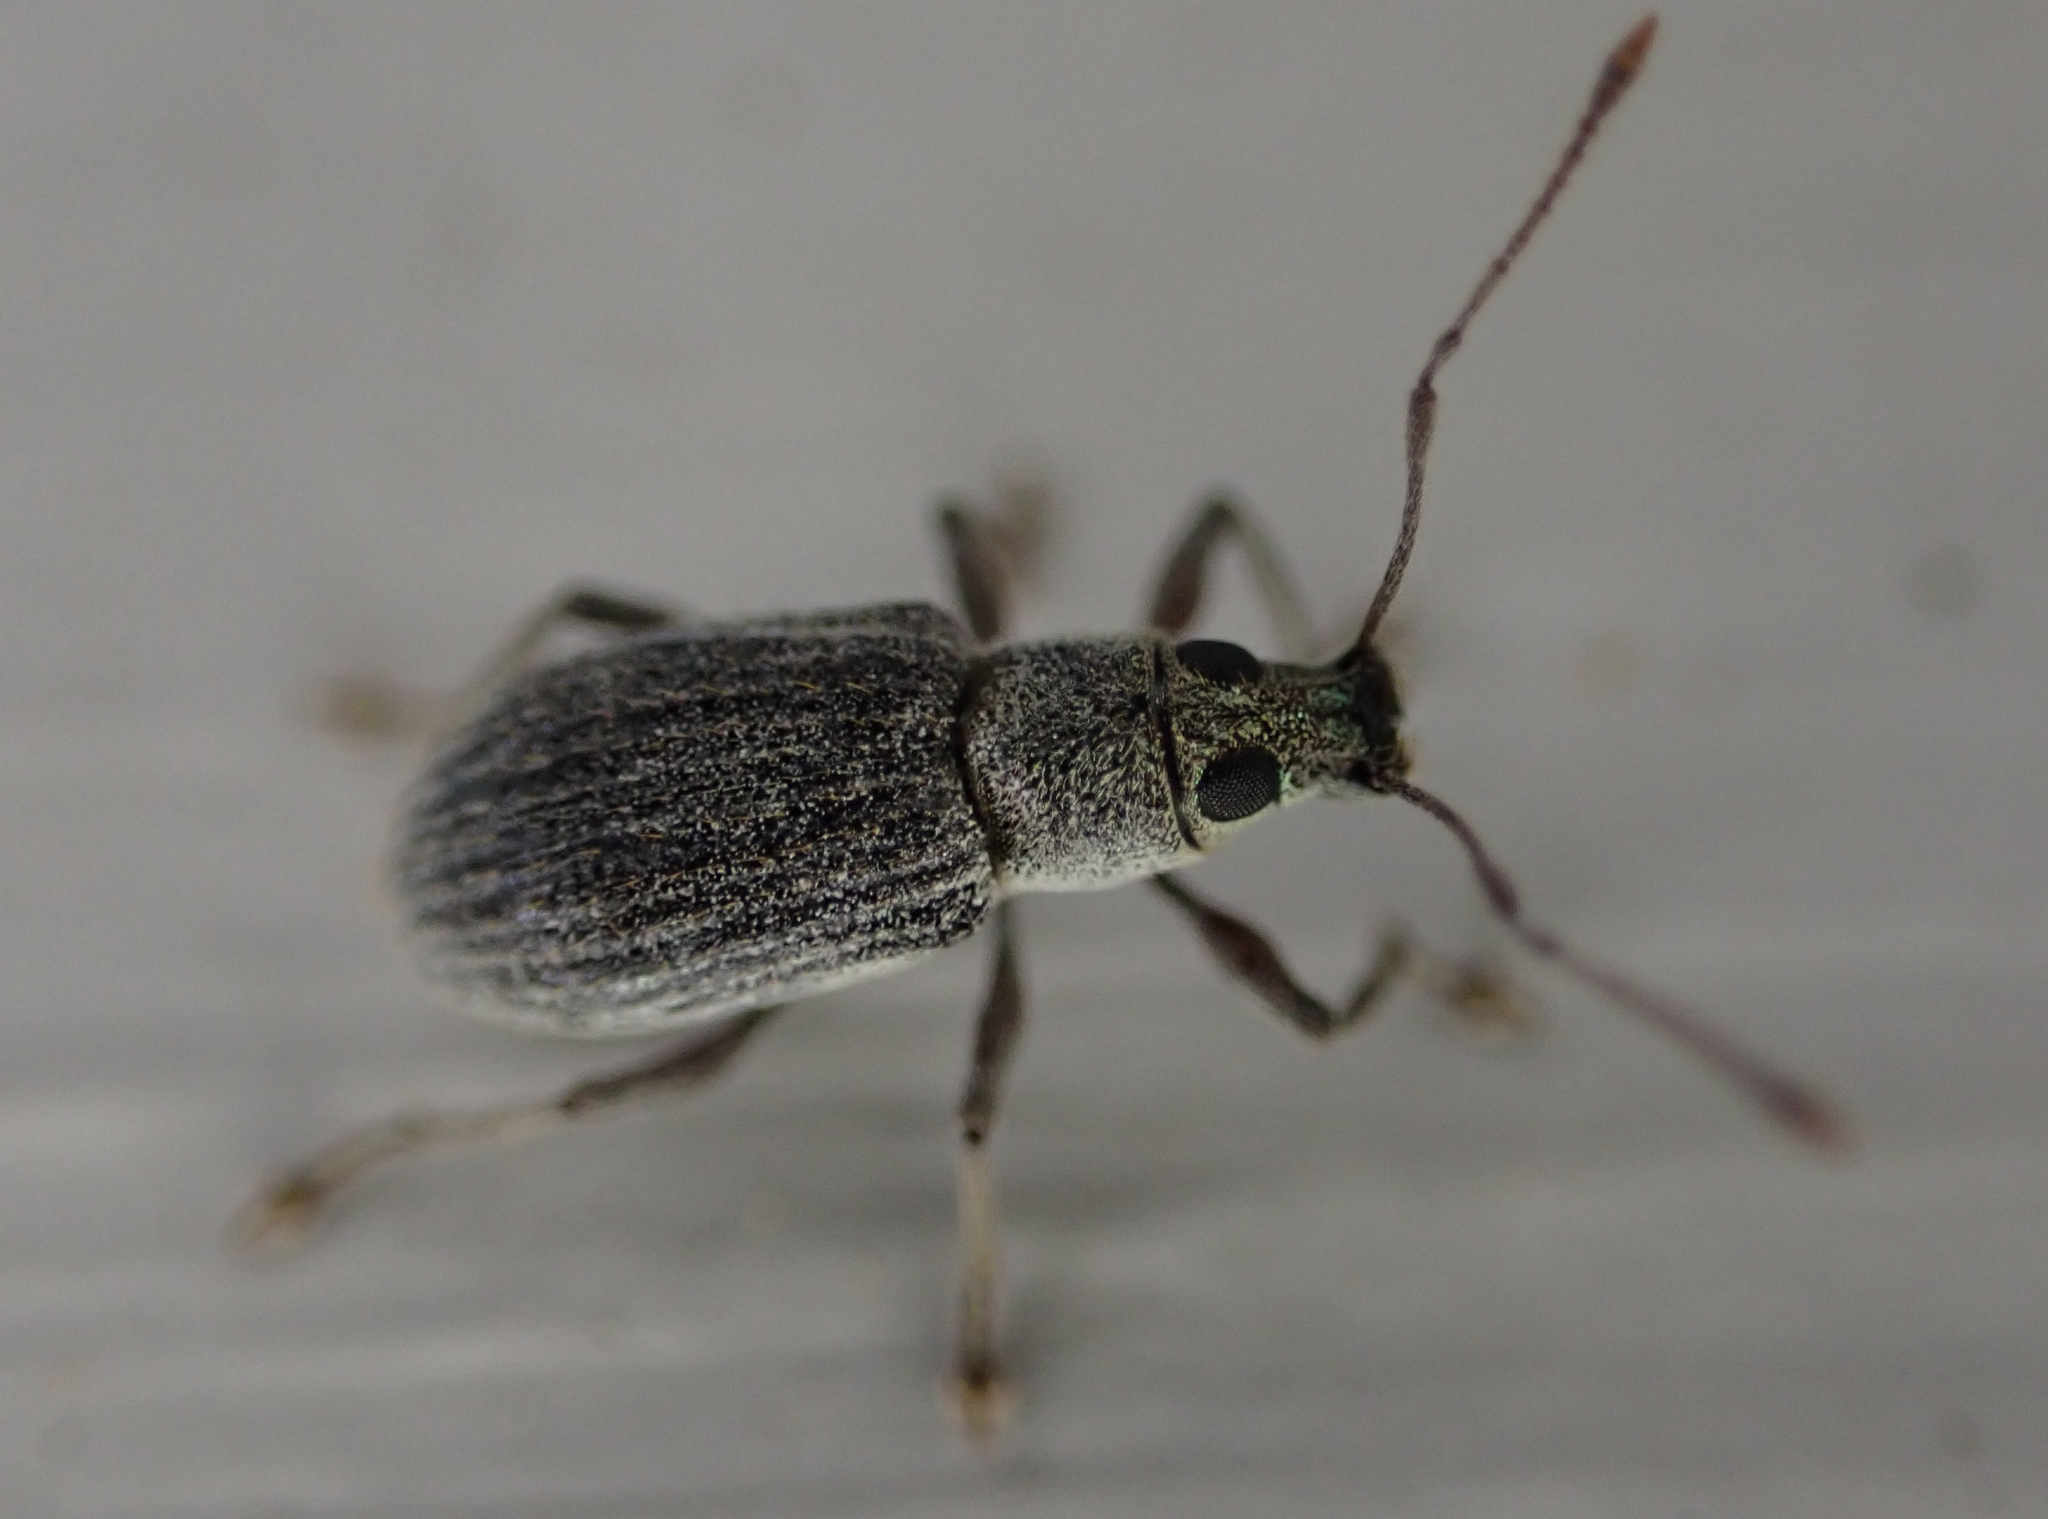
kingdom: Animalia
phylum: Arthropoda
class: Insecta
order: Coleoptera
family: Curculionidae
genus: Cyrtepistomus
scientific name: Cyrtepistomus castaneus
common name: Weevil
